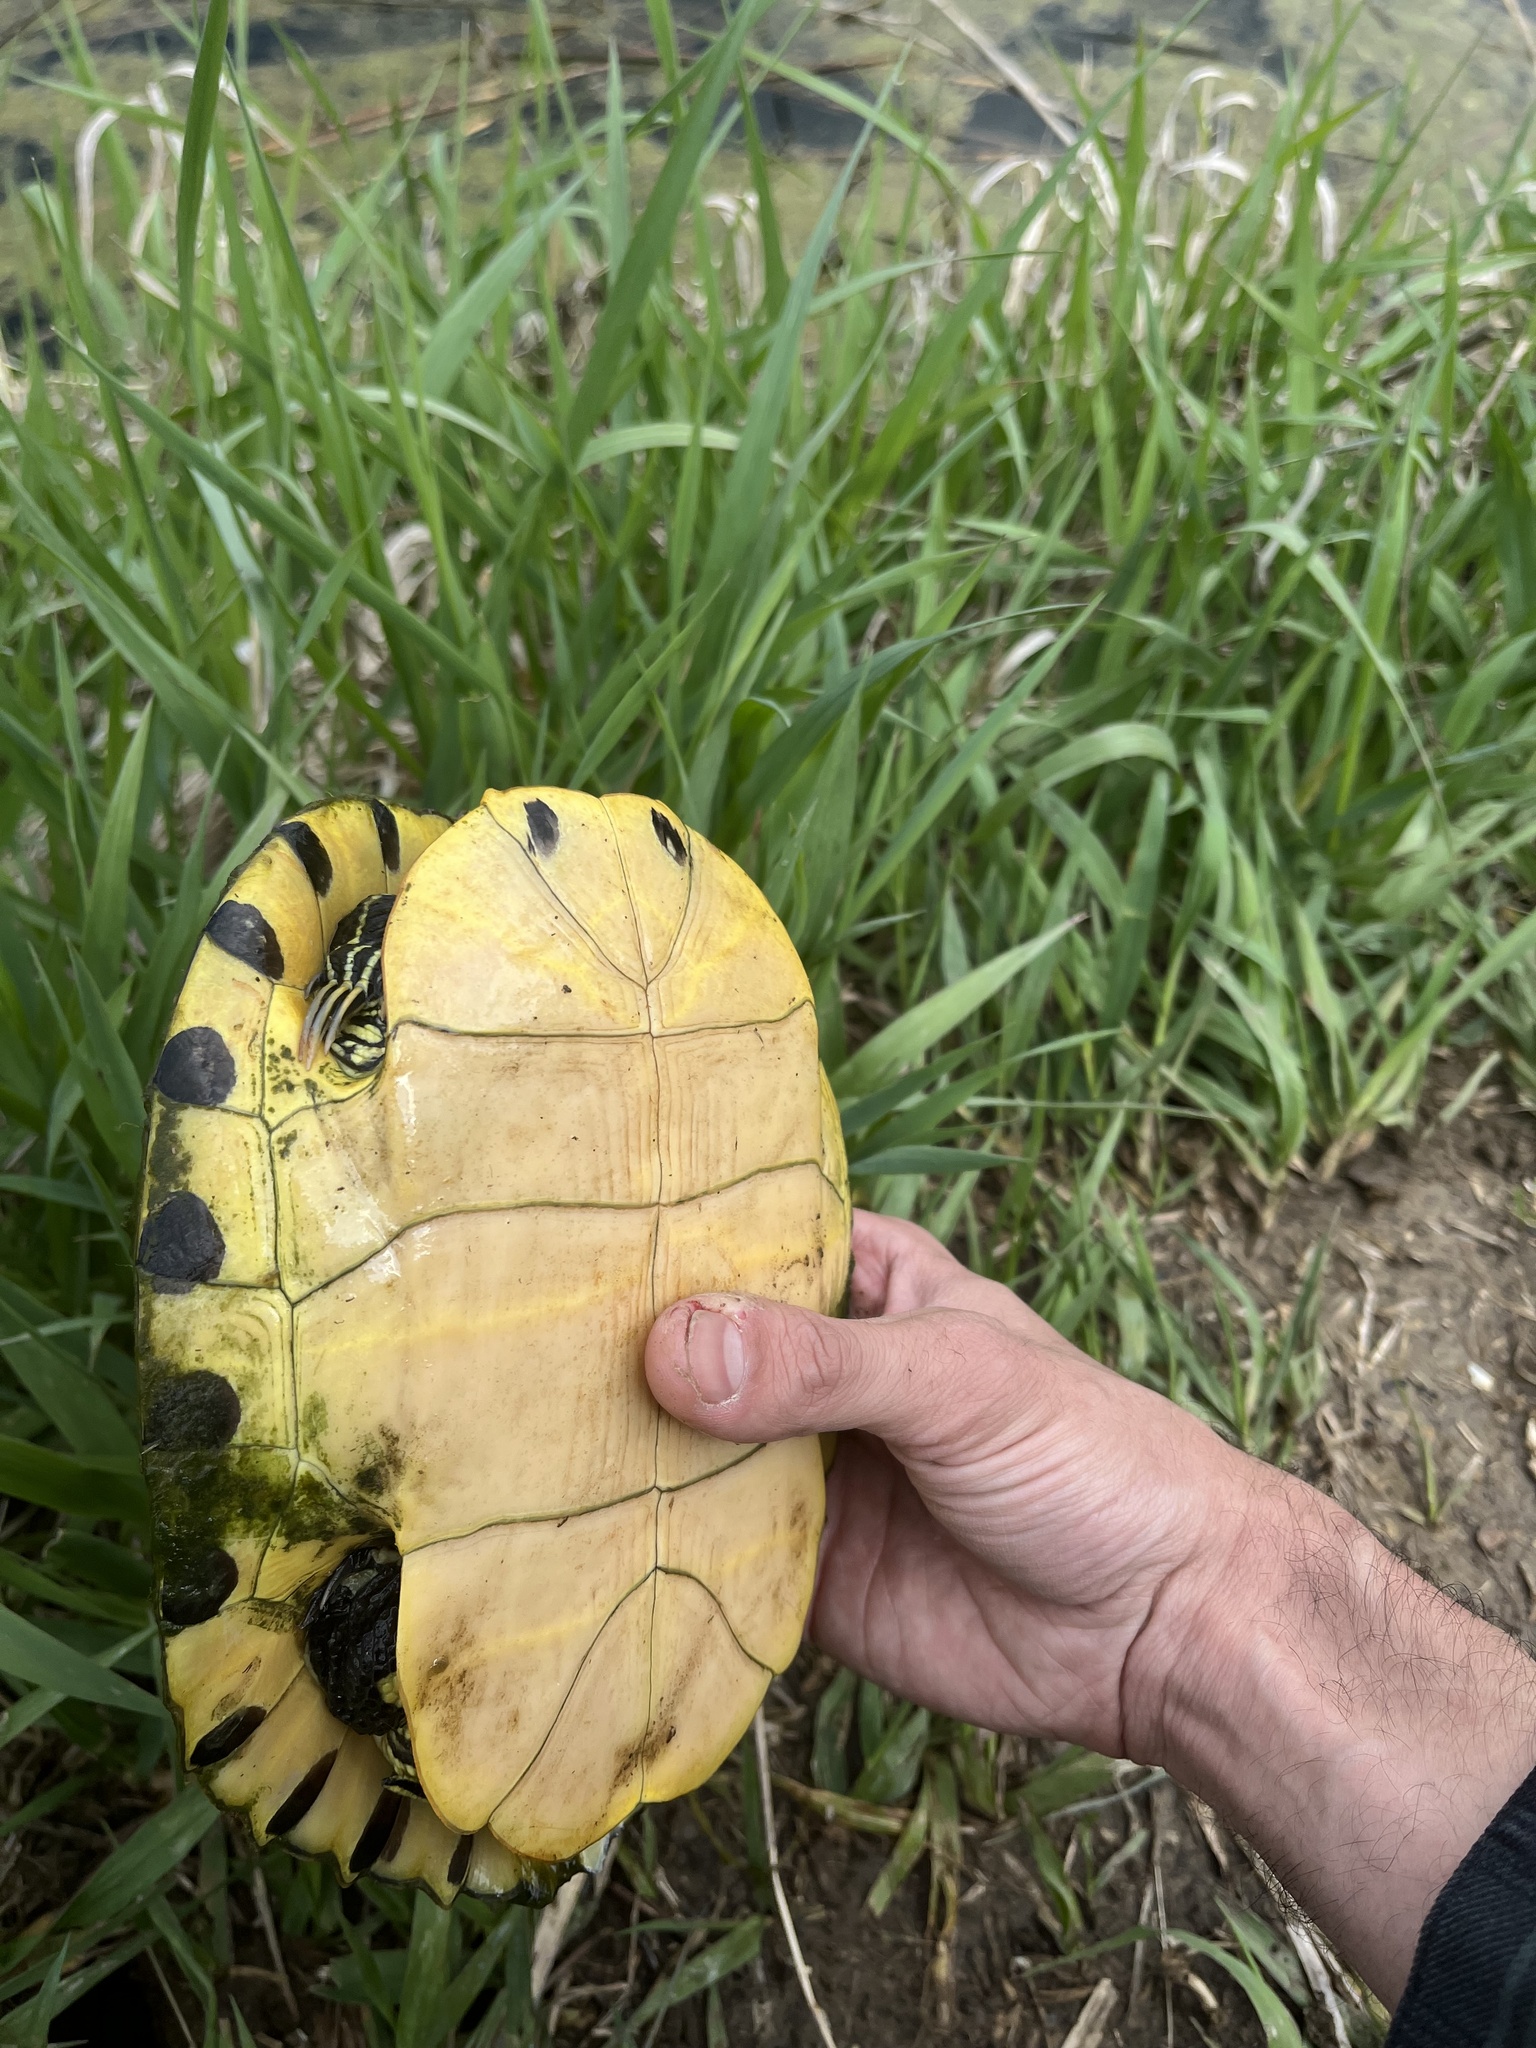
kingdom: Animalia
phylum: Chordata
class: Testudines
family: Emydidae
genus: Trachemys
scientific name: Trachemys scripta
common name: Slider
